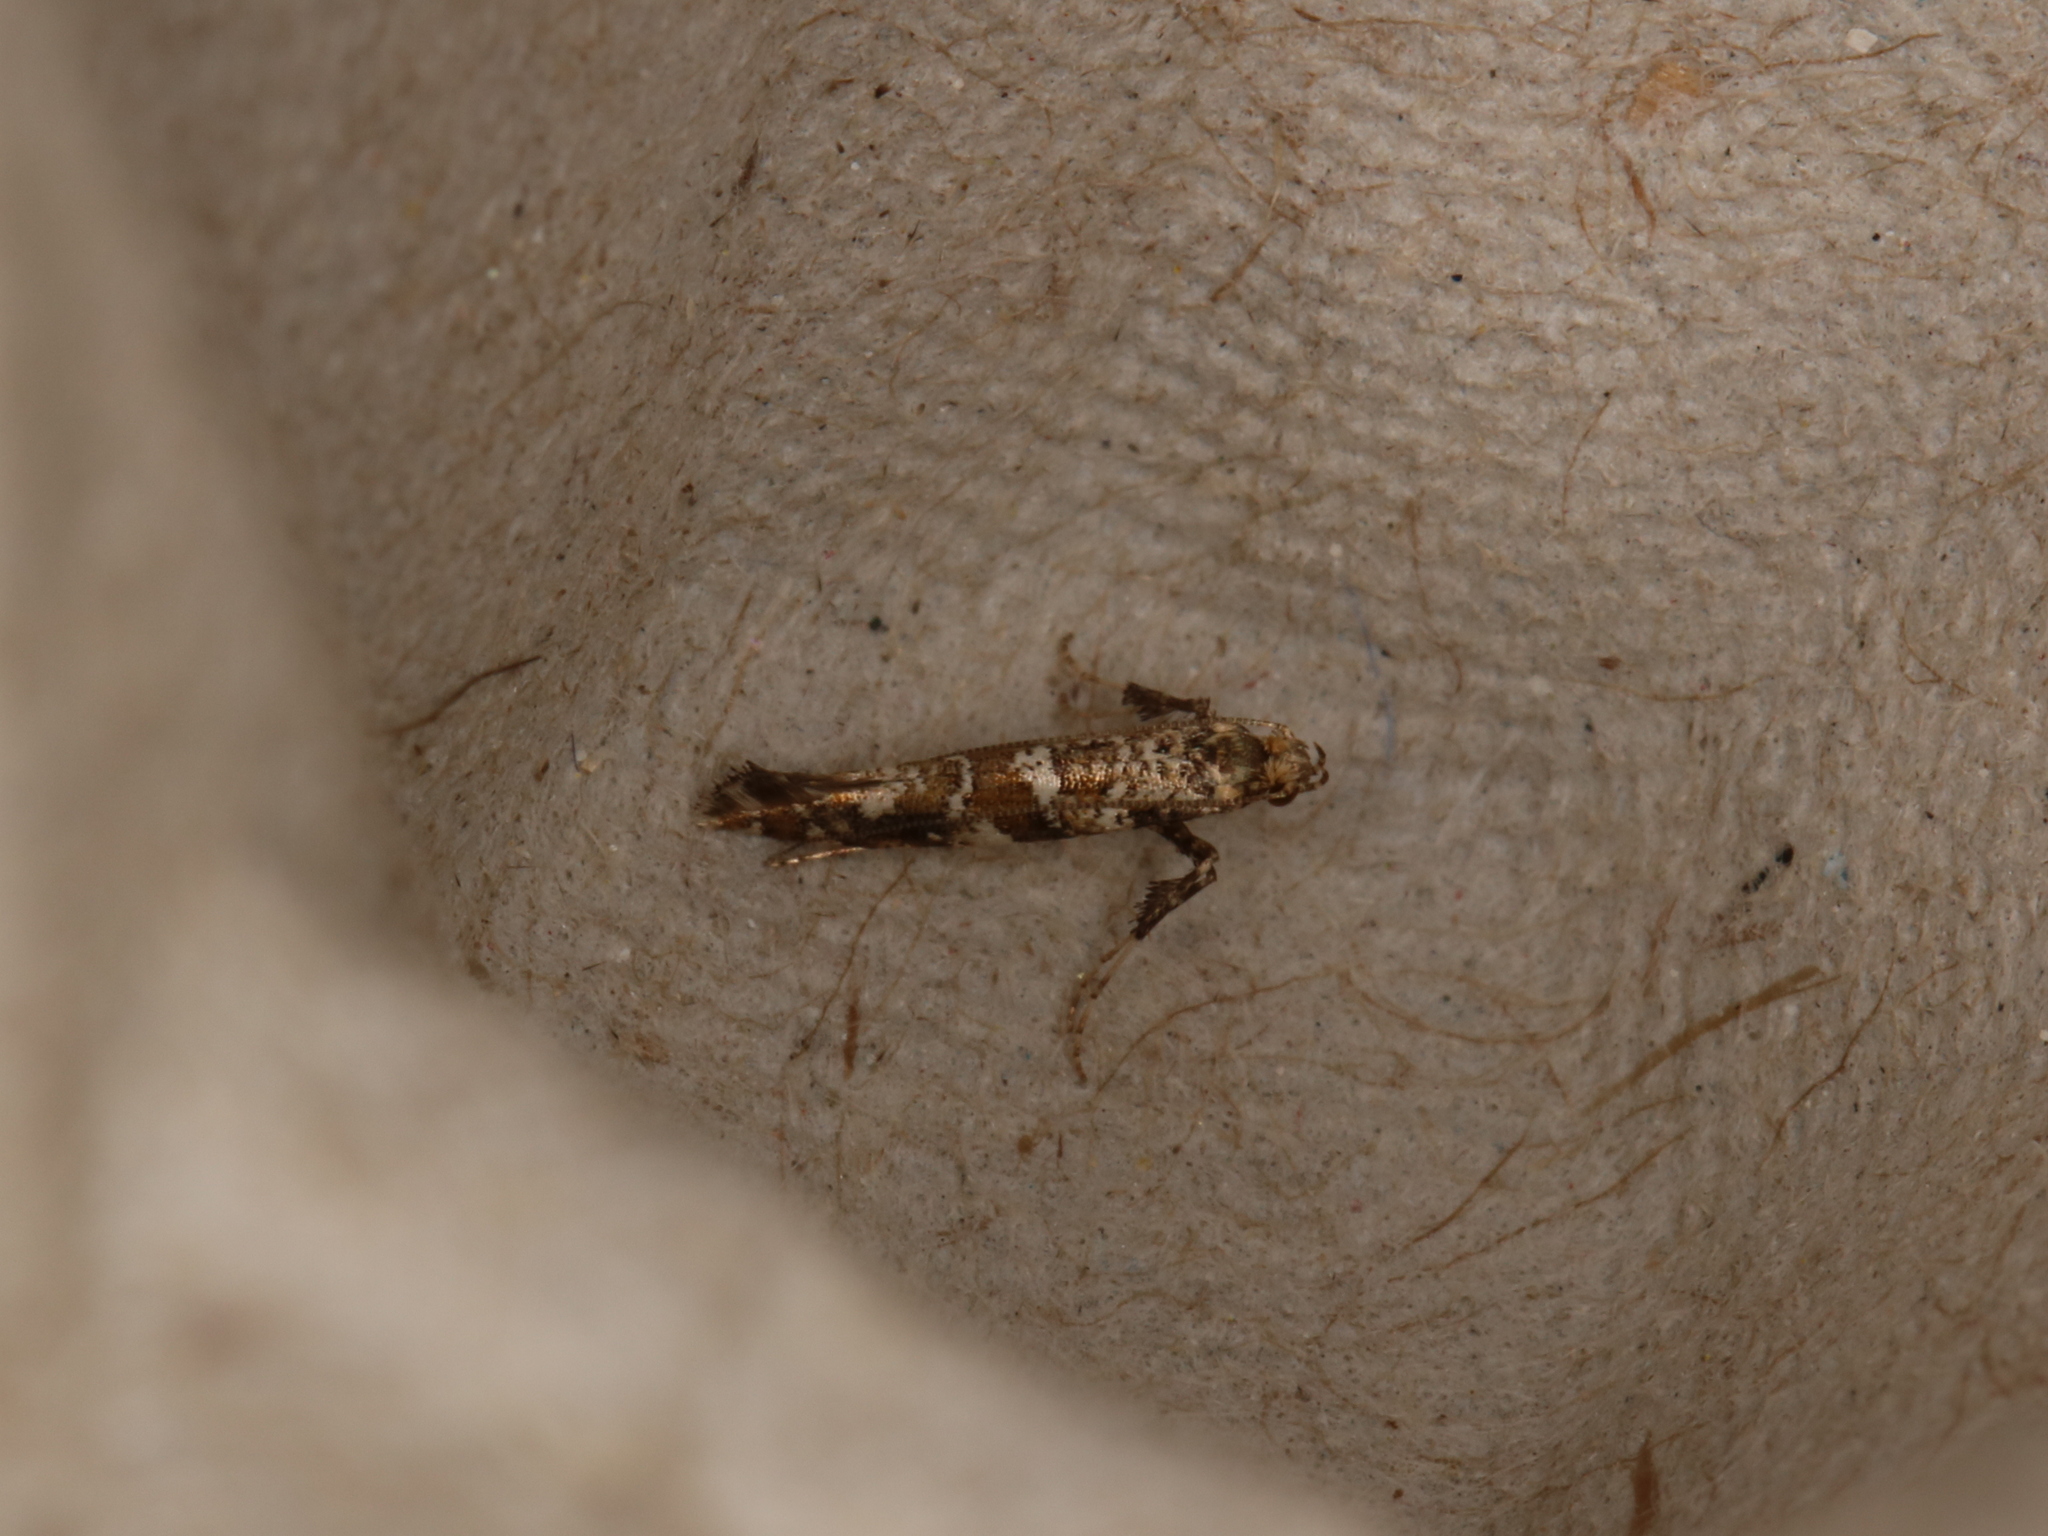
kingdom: Animalia
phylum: Arthropoda
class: Insecta
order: Lepidoptera
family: Gracillariidae
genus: Gracillaria
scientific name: Gracillaria syringella
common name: Common slender
